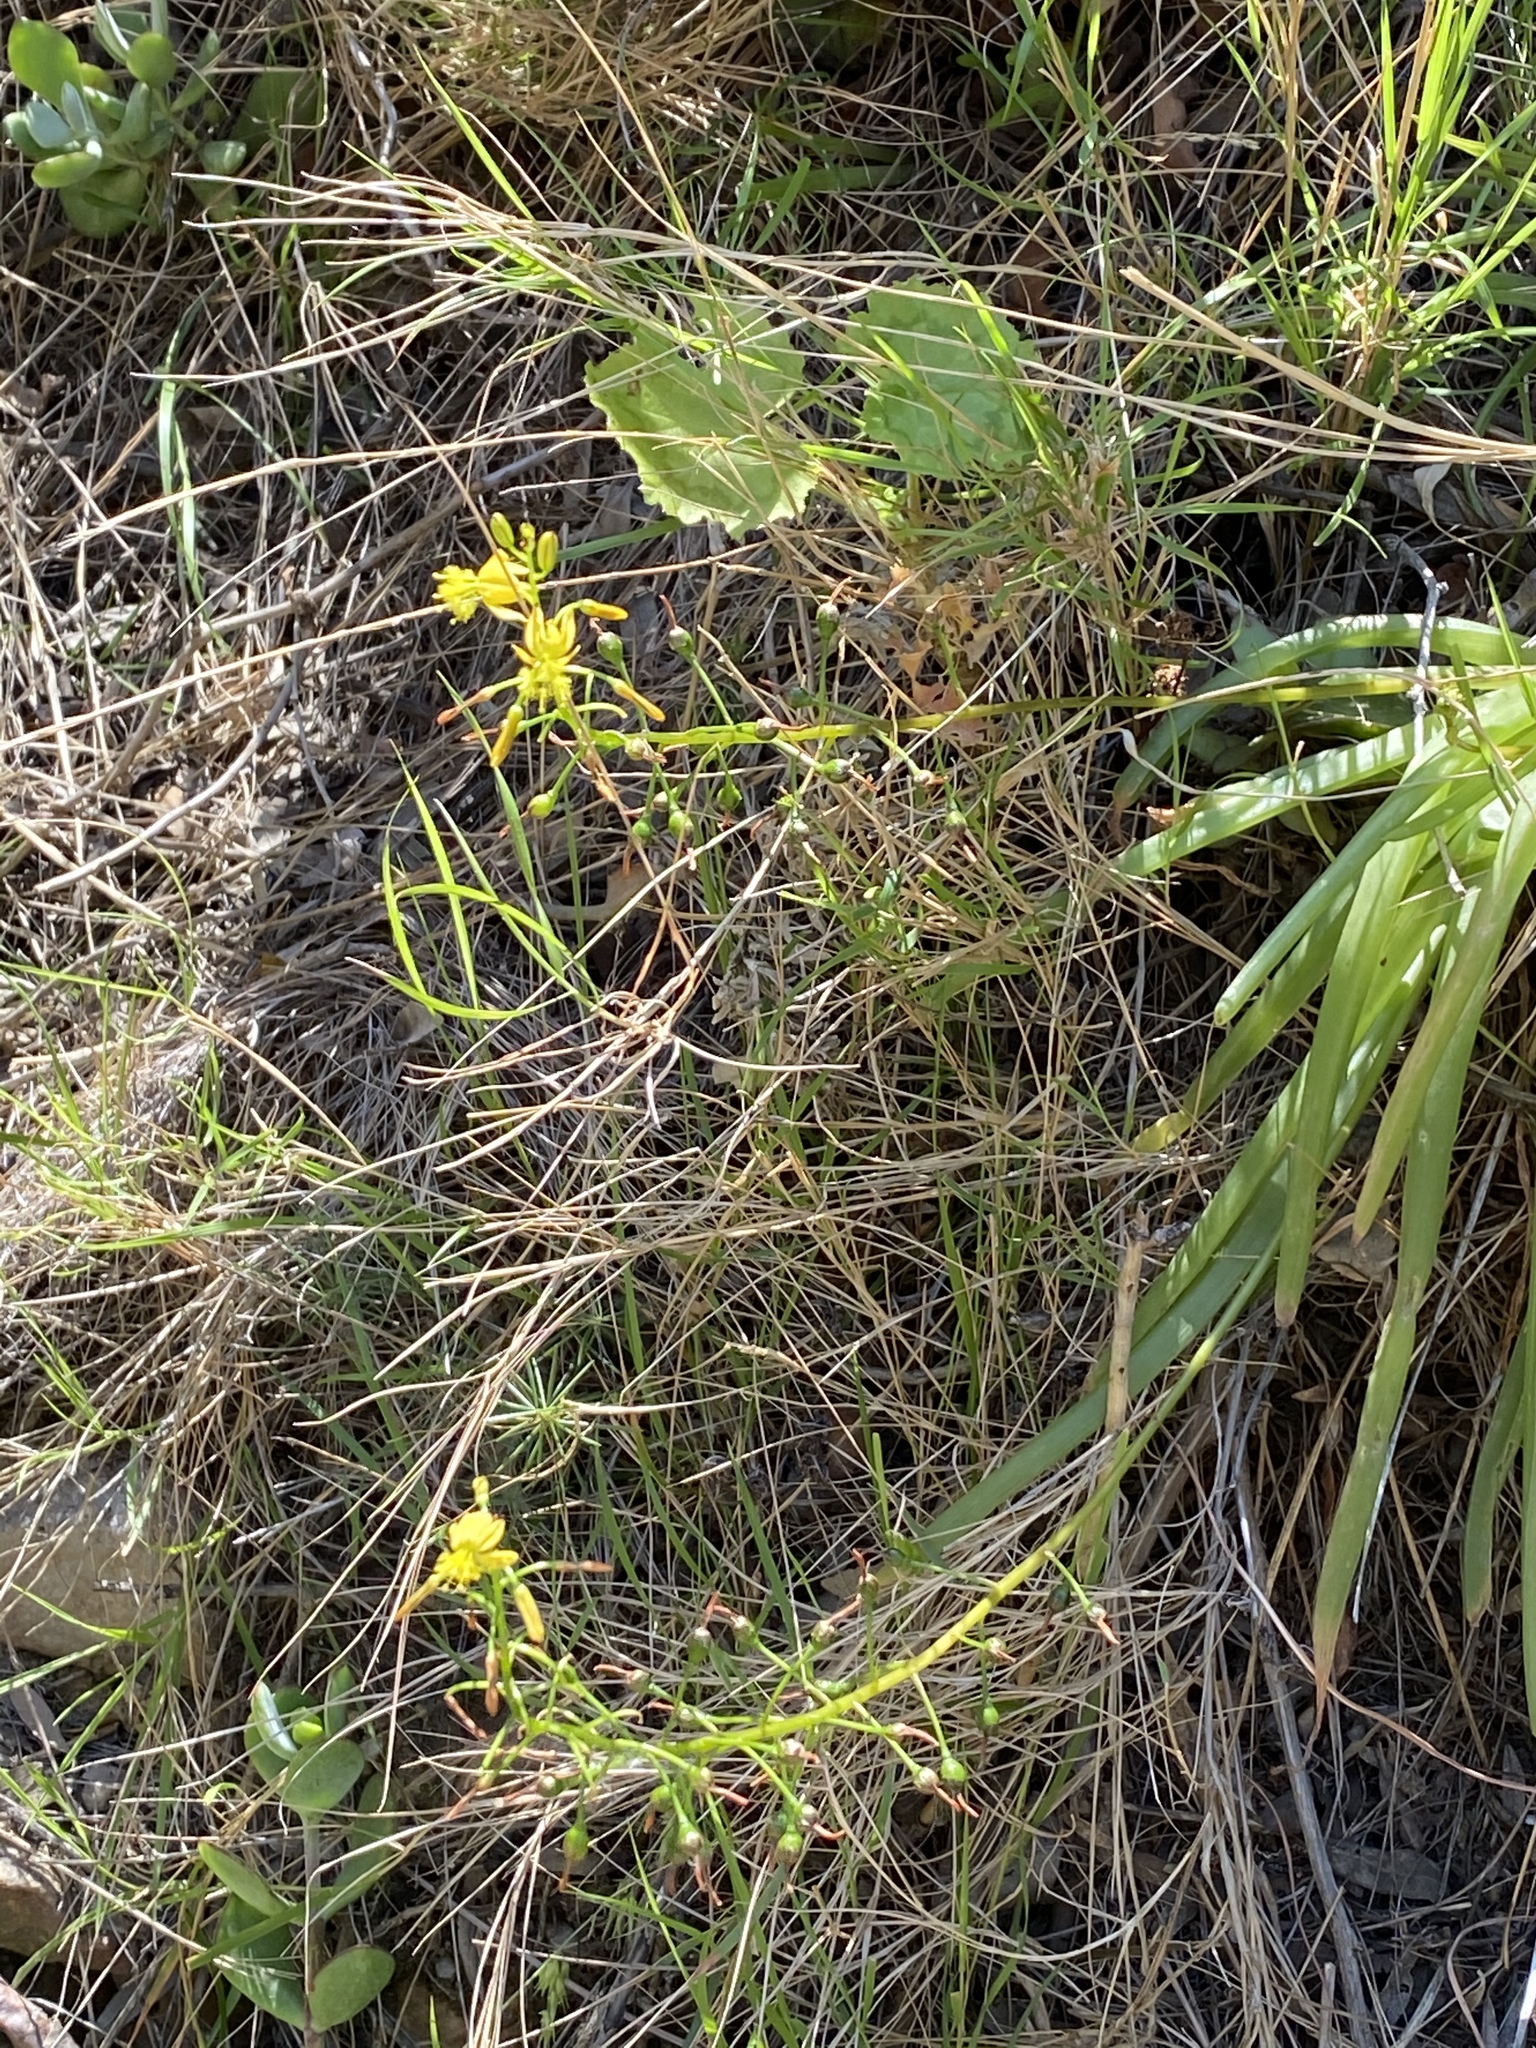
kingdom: Plantae
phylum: Tracheophyta
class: Liliopsida
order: Asparagales
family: Asphodelaceae
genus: Bulbine
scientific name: Bulbine meiringii
